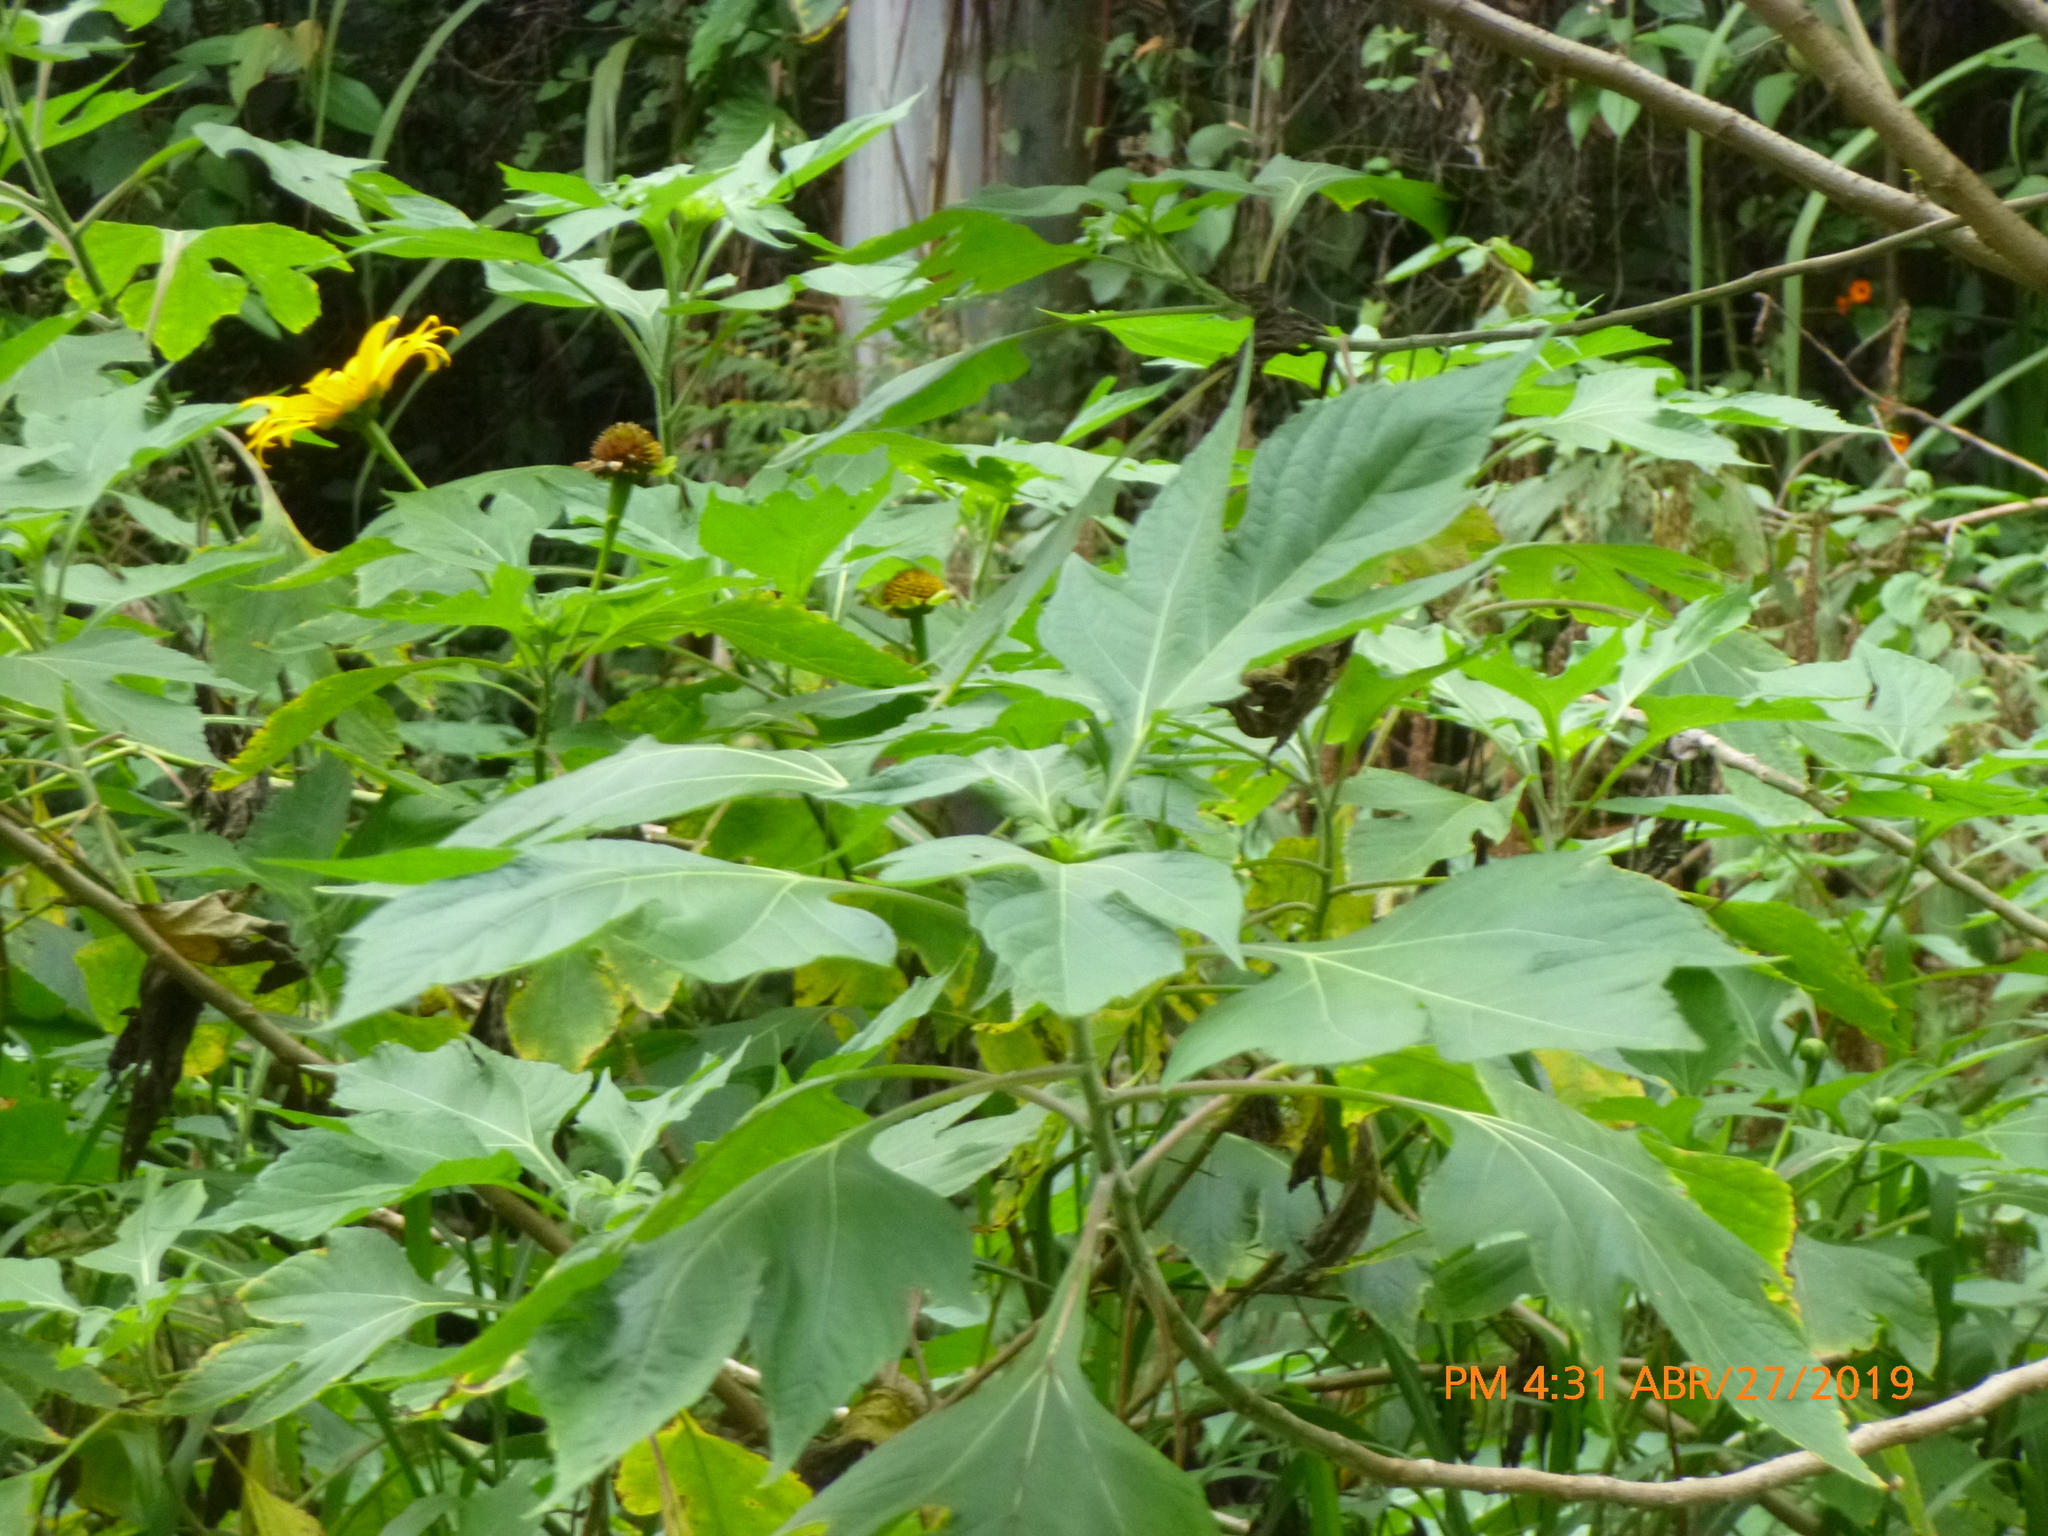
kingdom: Plantae
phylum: Tracheophyta
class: Magnoliopsida
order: Asterales
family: Asteraceae
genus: Tithonia
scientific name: Tithonia diversifolia
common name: Tree marigold
